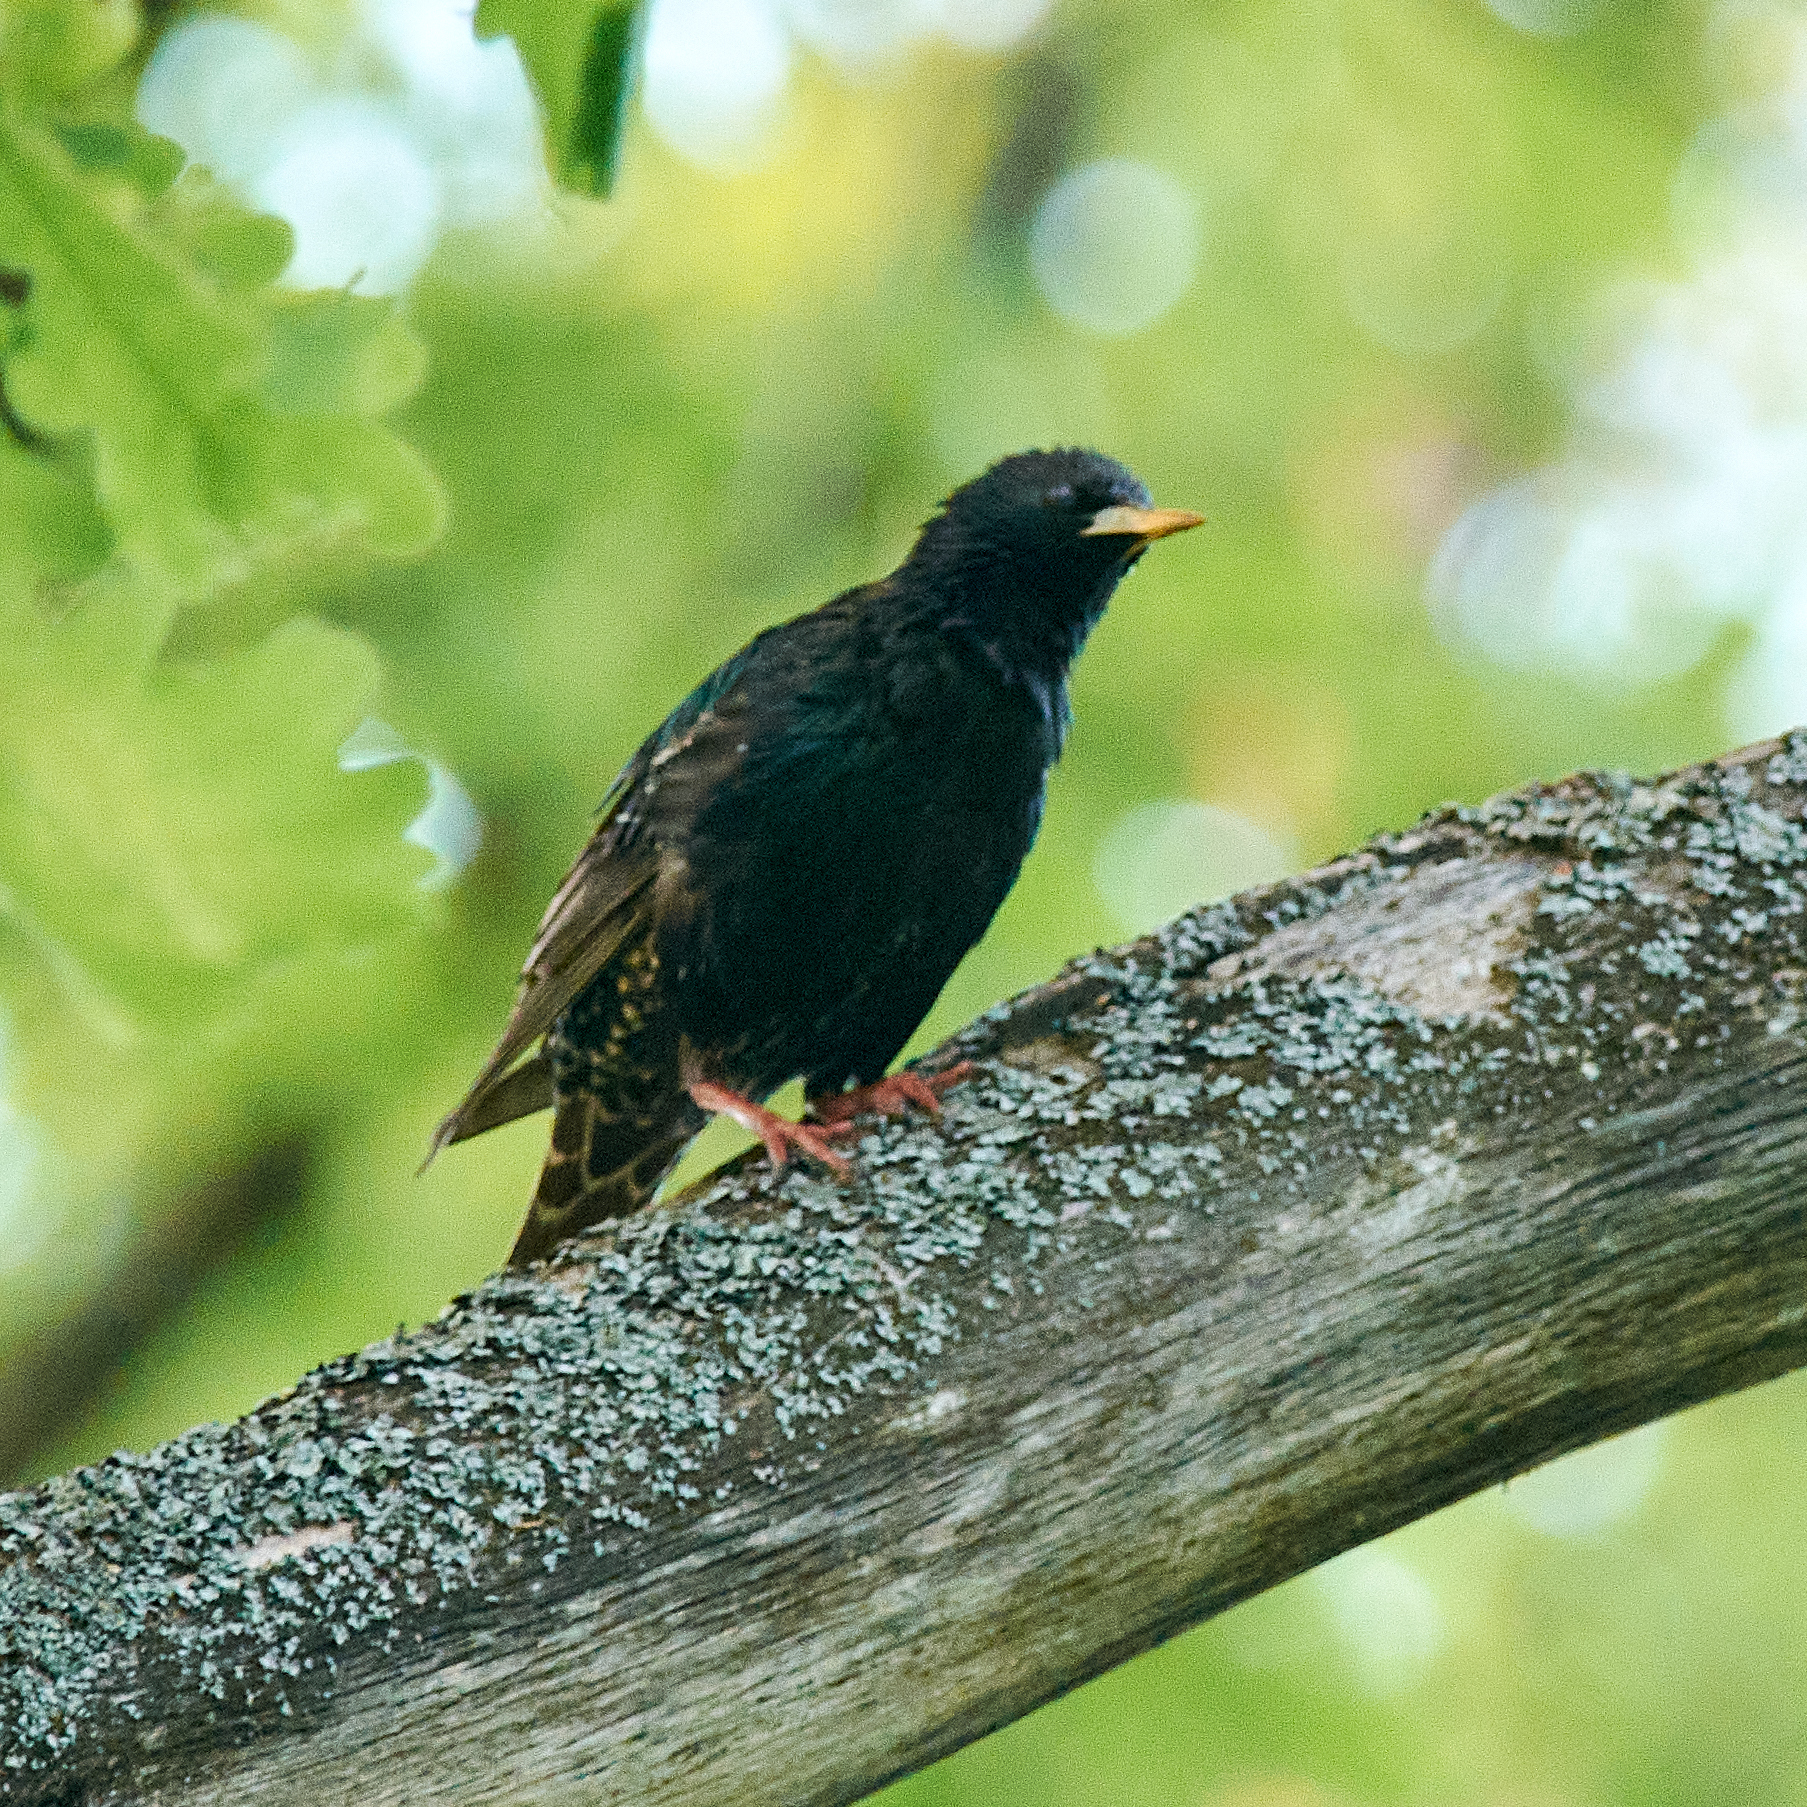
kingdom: Animalia
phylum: Chordata
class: Aves
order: Passeriformes
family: Sturnidae
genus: Sturnus
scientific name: Sturnus vulgaris
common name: Common starling
